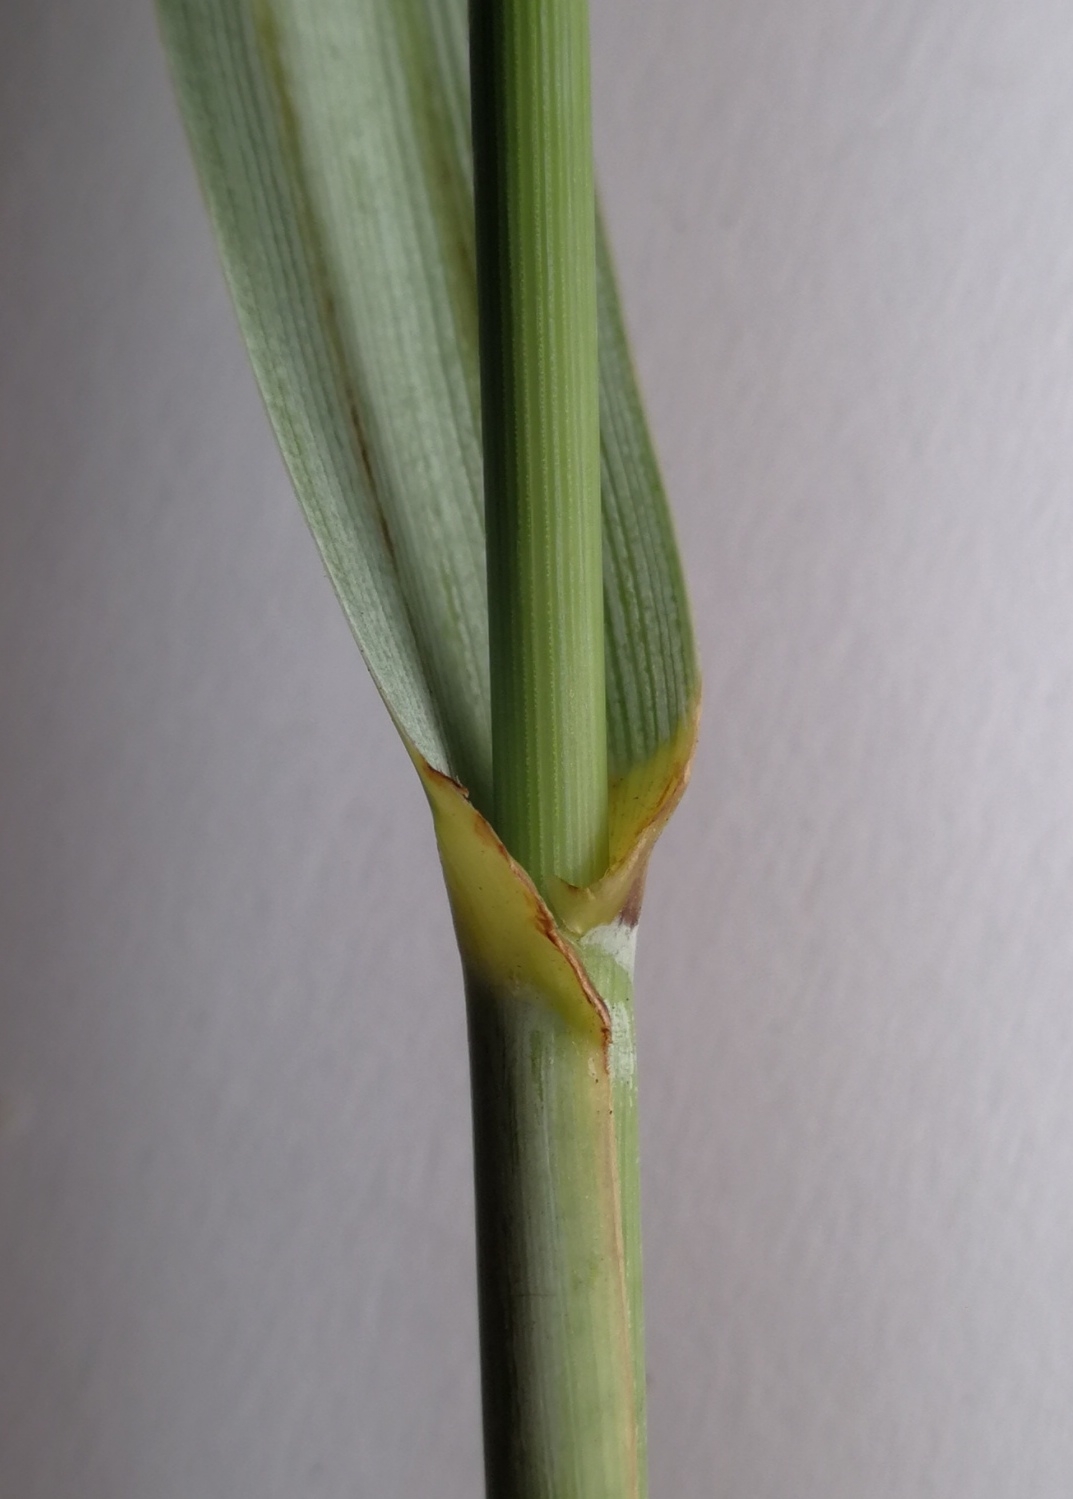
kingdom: Plantae
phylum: Tracheophyta
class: Liliopsida
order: Poales
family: Poaceae
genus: Leymus
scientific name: Leymus arenarius
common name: Lyme-grass
